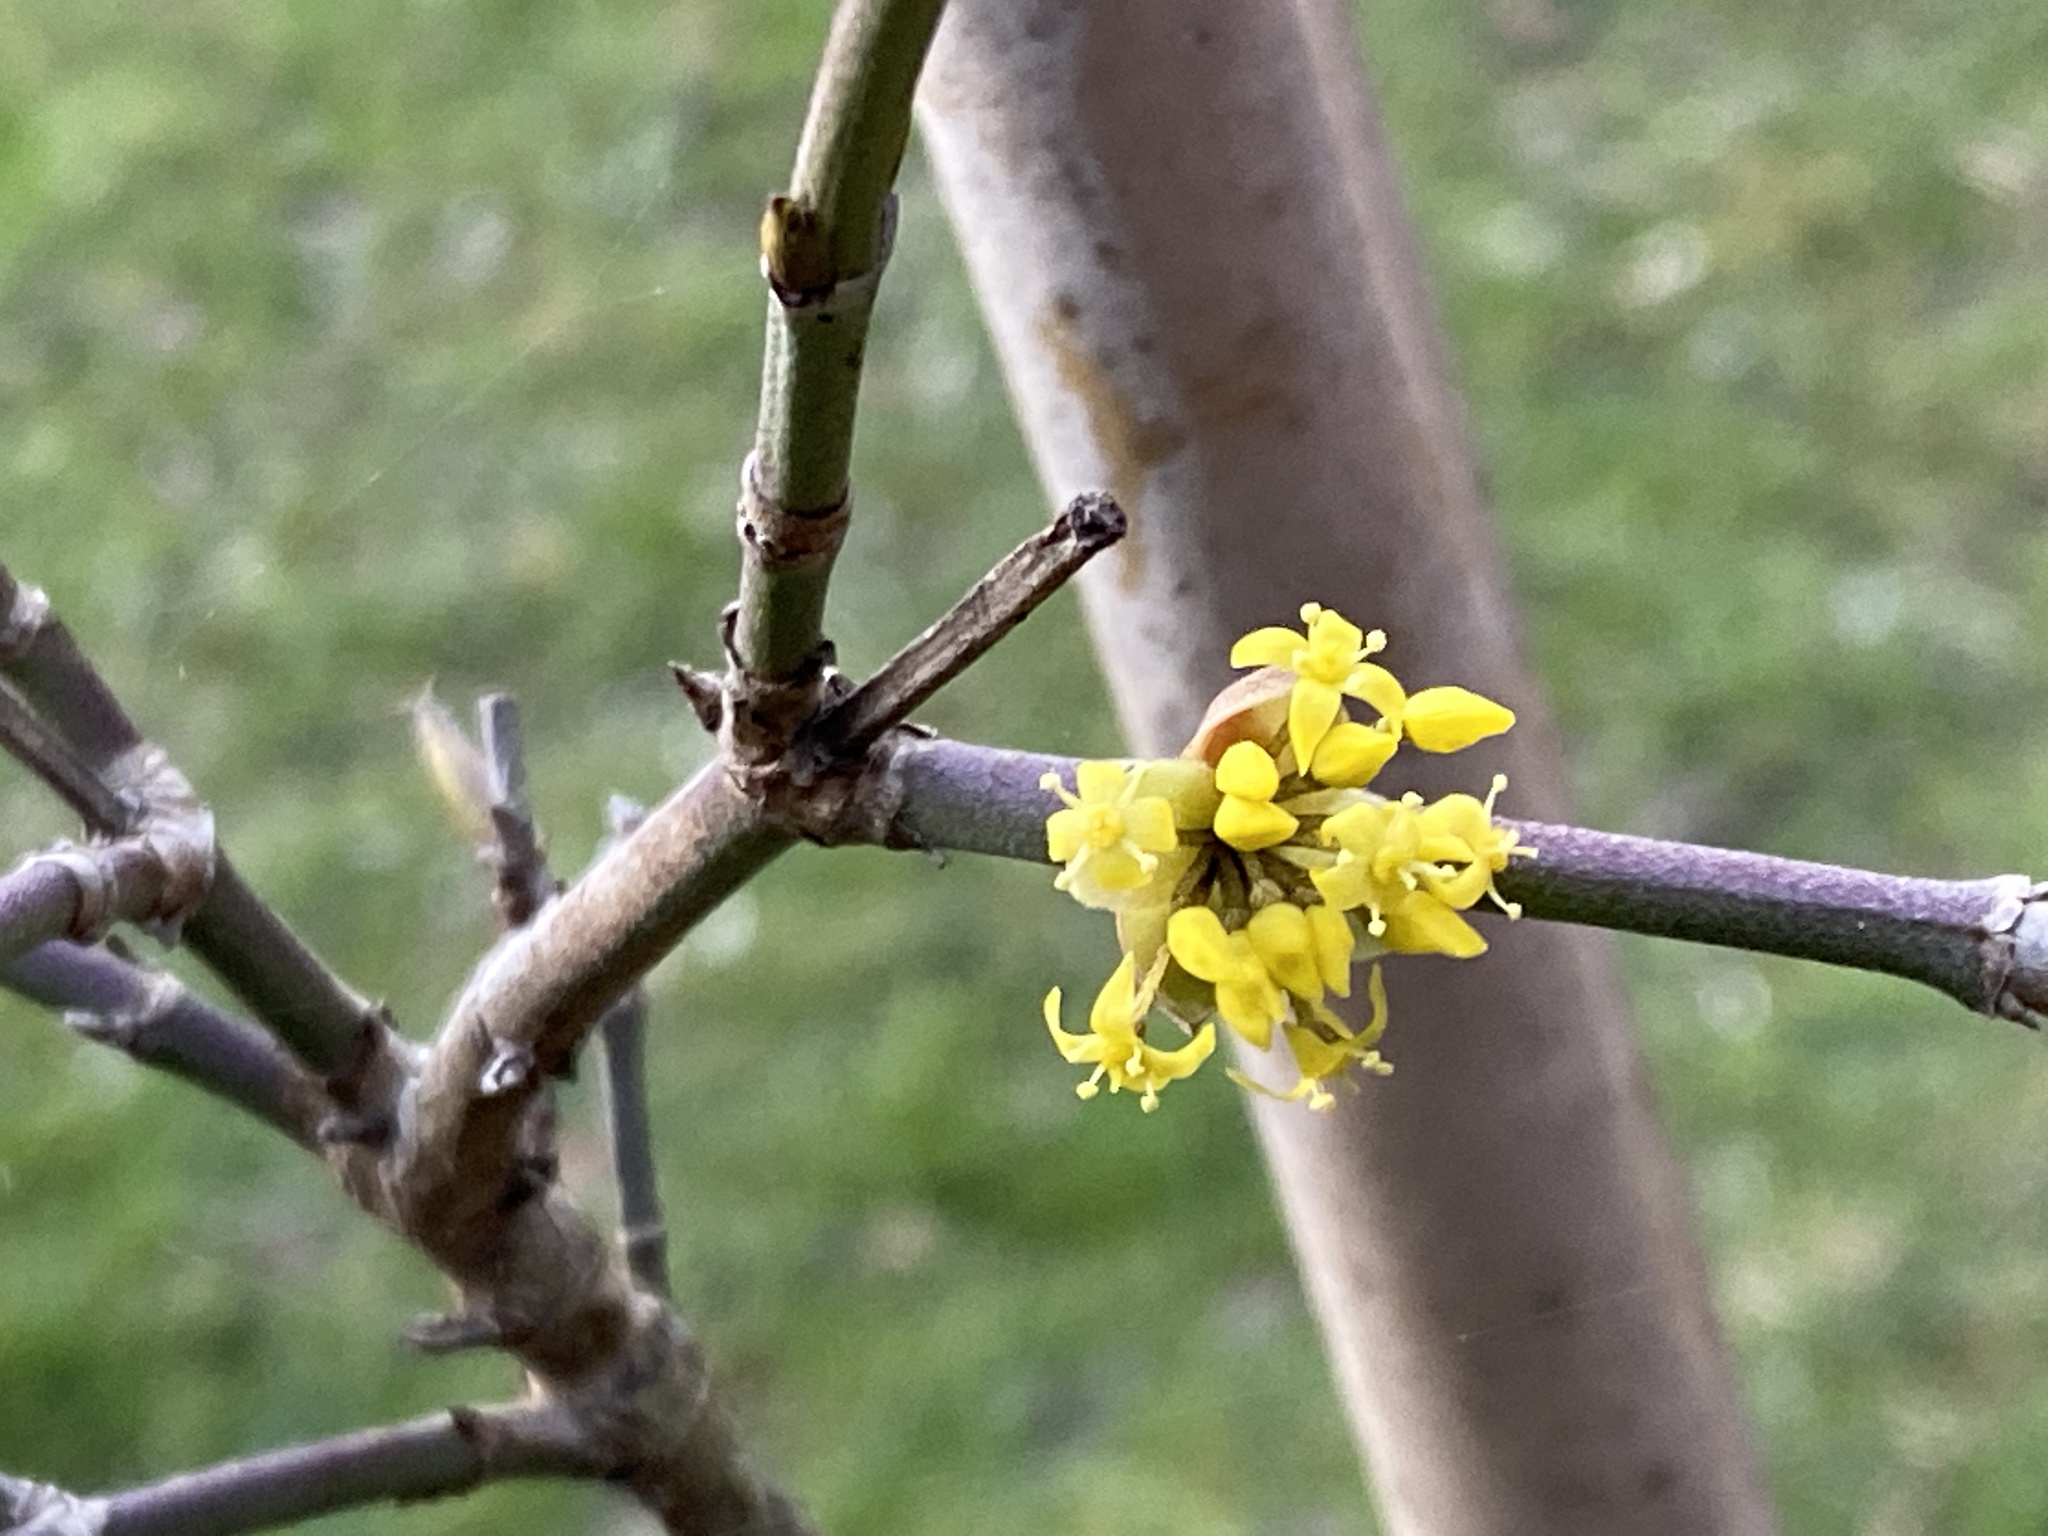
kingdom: Plantae
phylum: Tracheophyta
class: Magnoliopsida
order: Cornales
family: Cornaceae
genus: Cornus
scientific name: Cornus mas
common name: Cornelian-cherry
